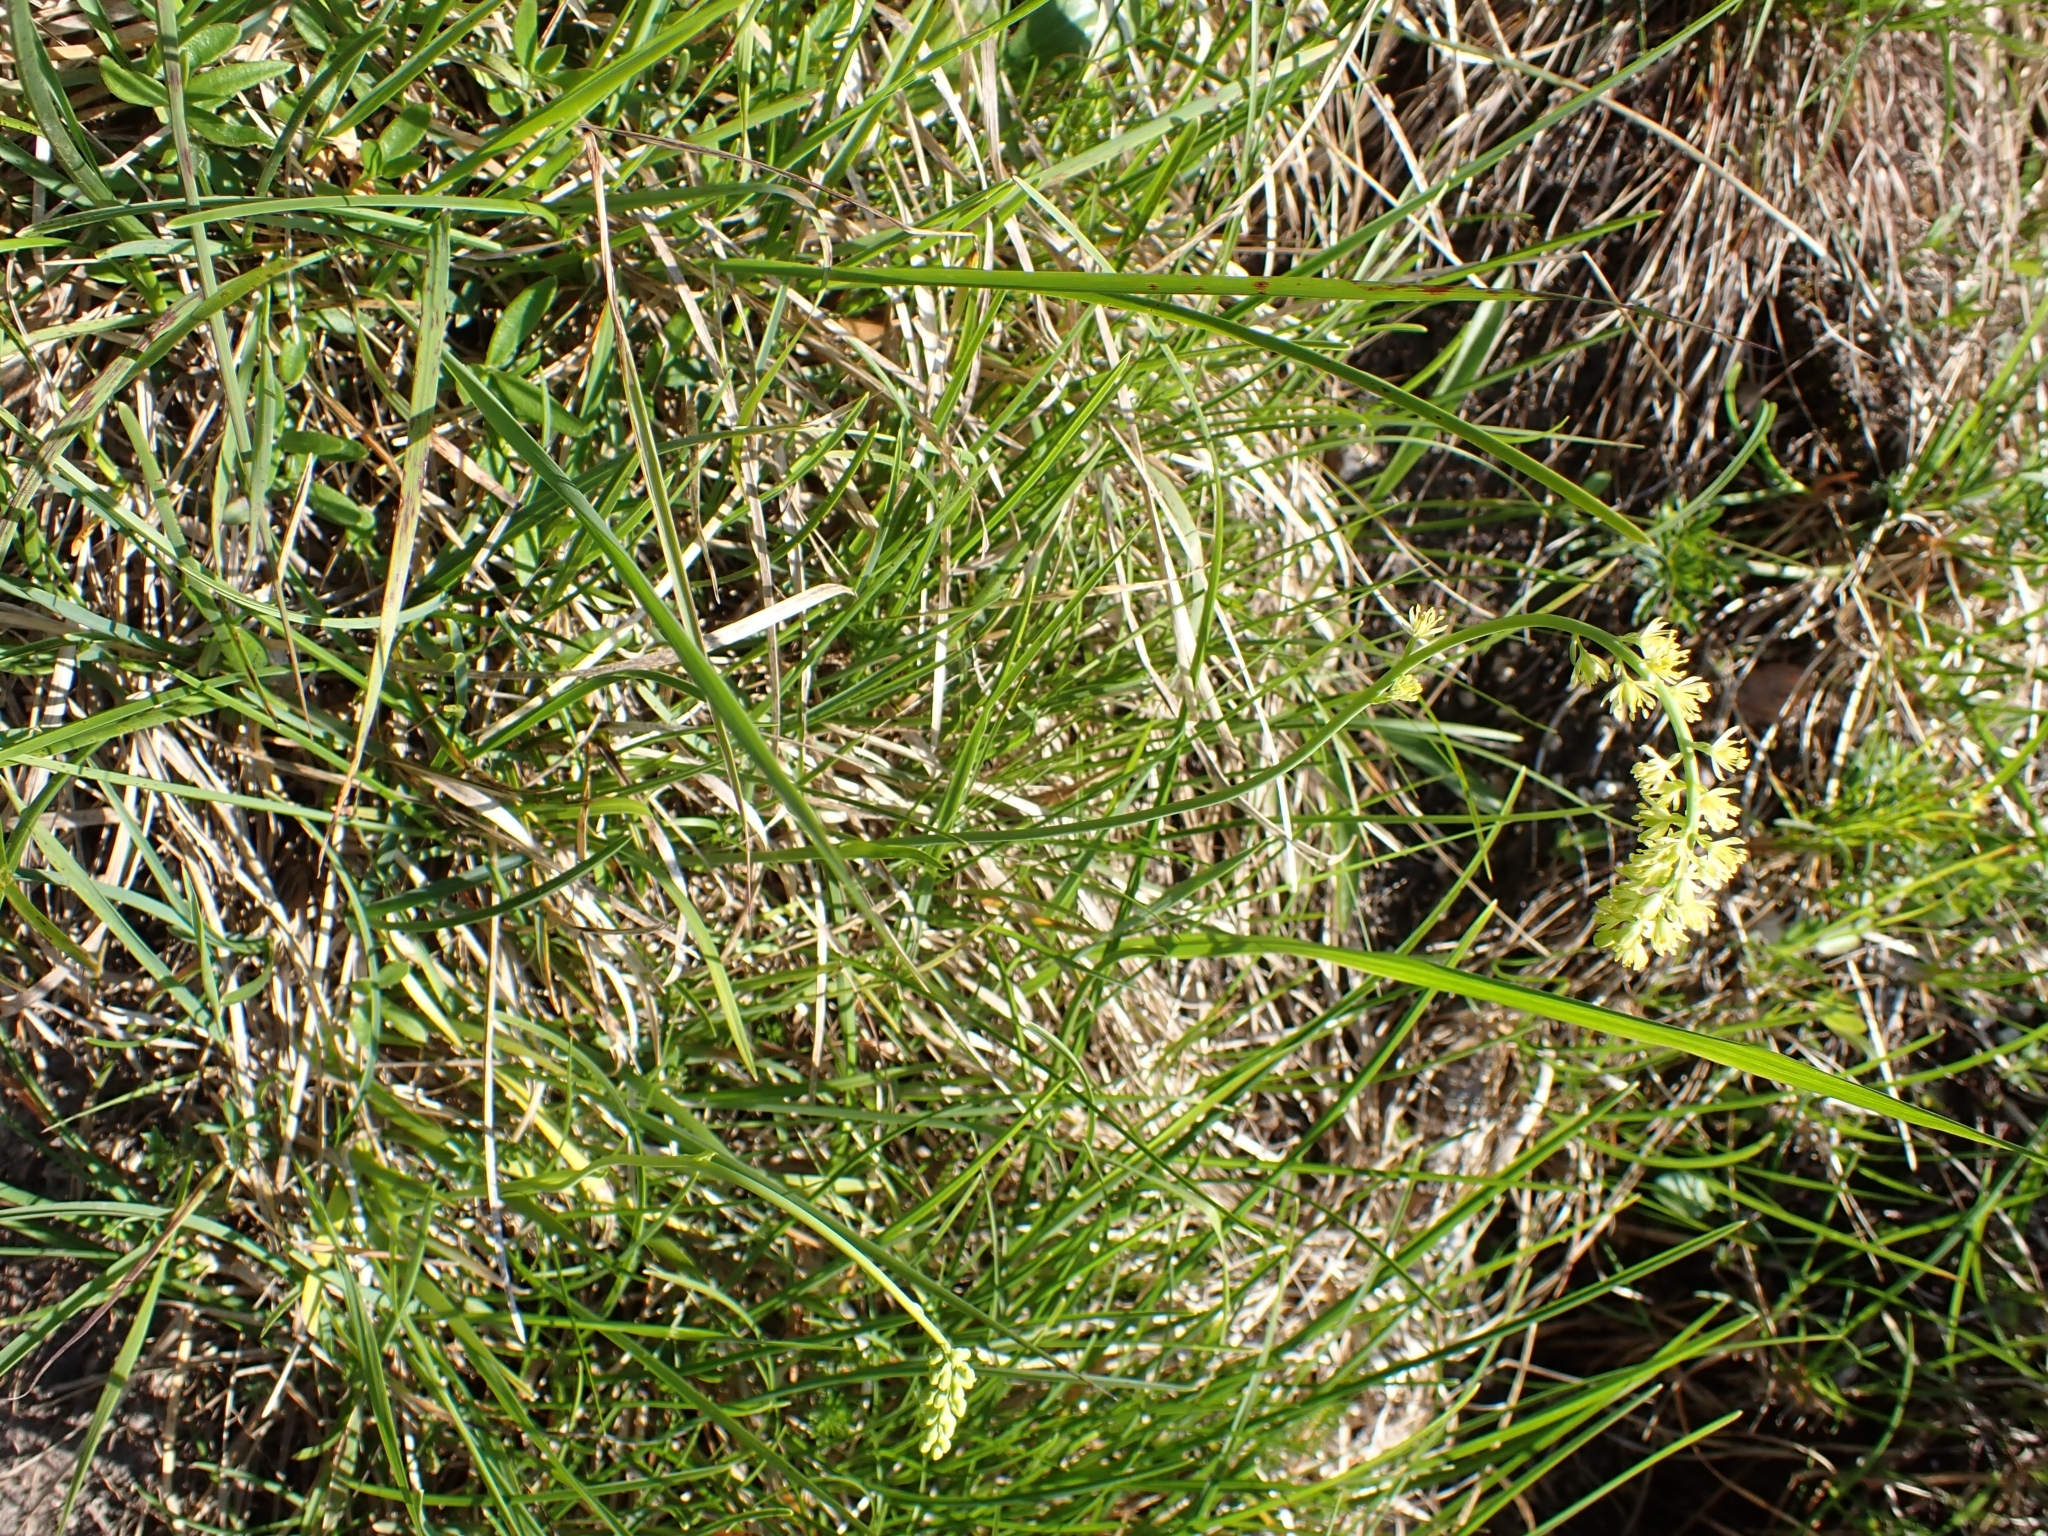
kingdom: Plantae
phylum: Tracheophyta
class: Liliopsida
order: Alismatales
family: Tofieldiaceae
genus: Tofieldia
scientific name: Tofieldia calyculata
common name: German-asphodel
